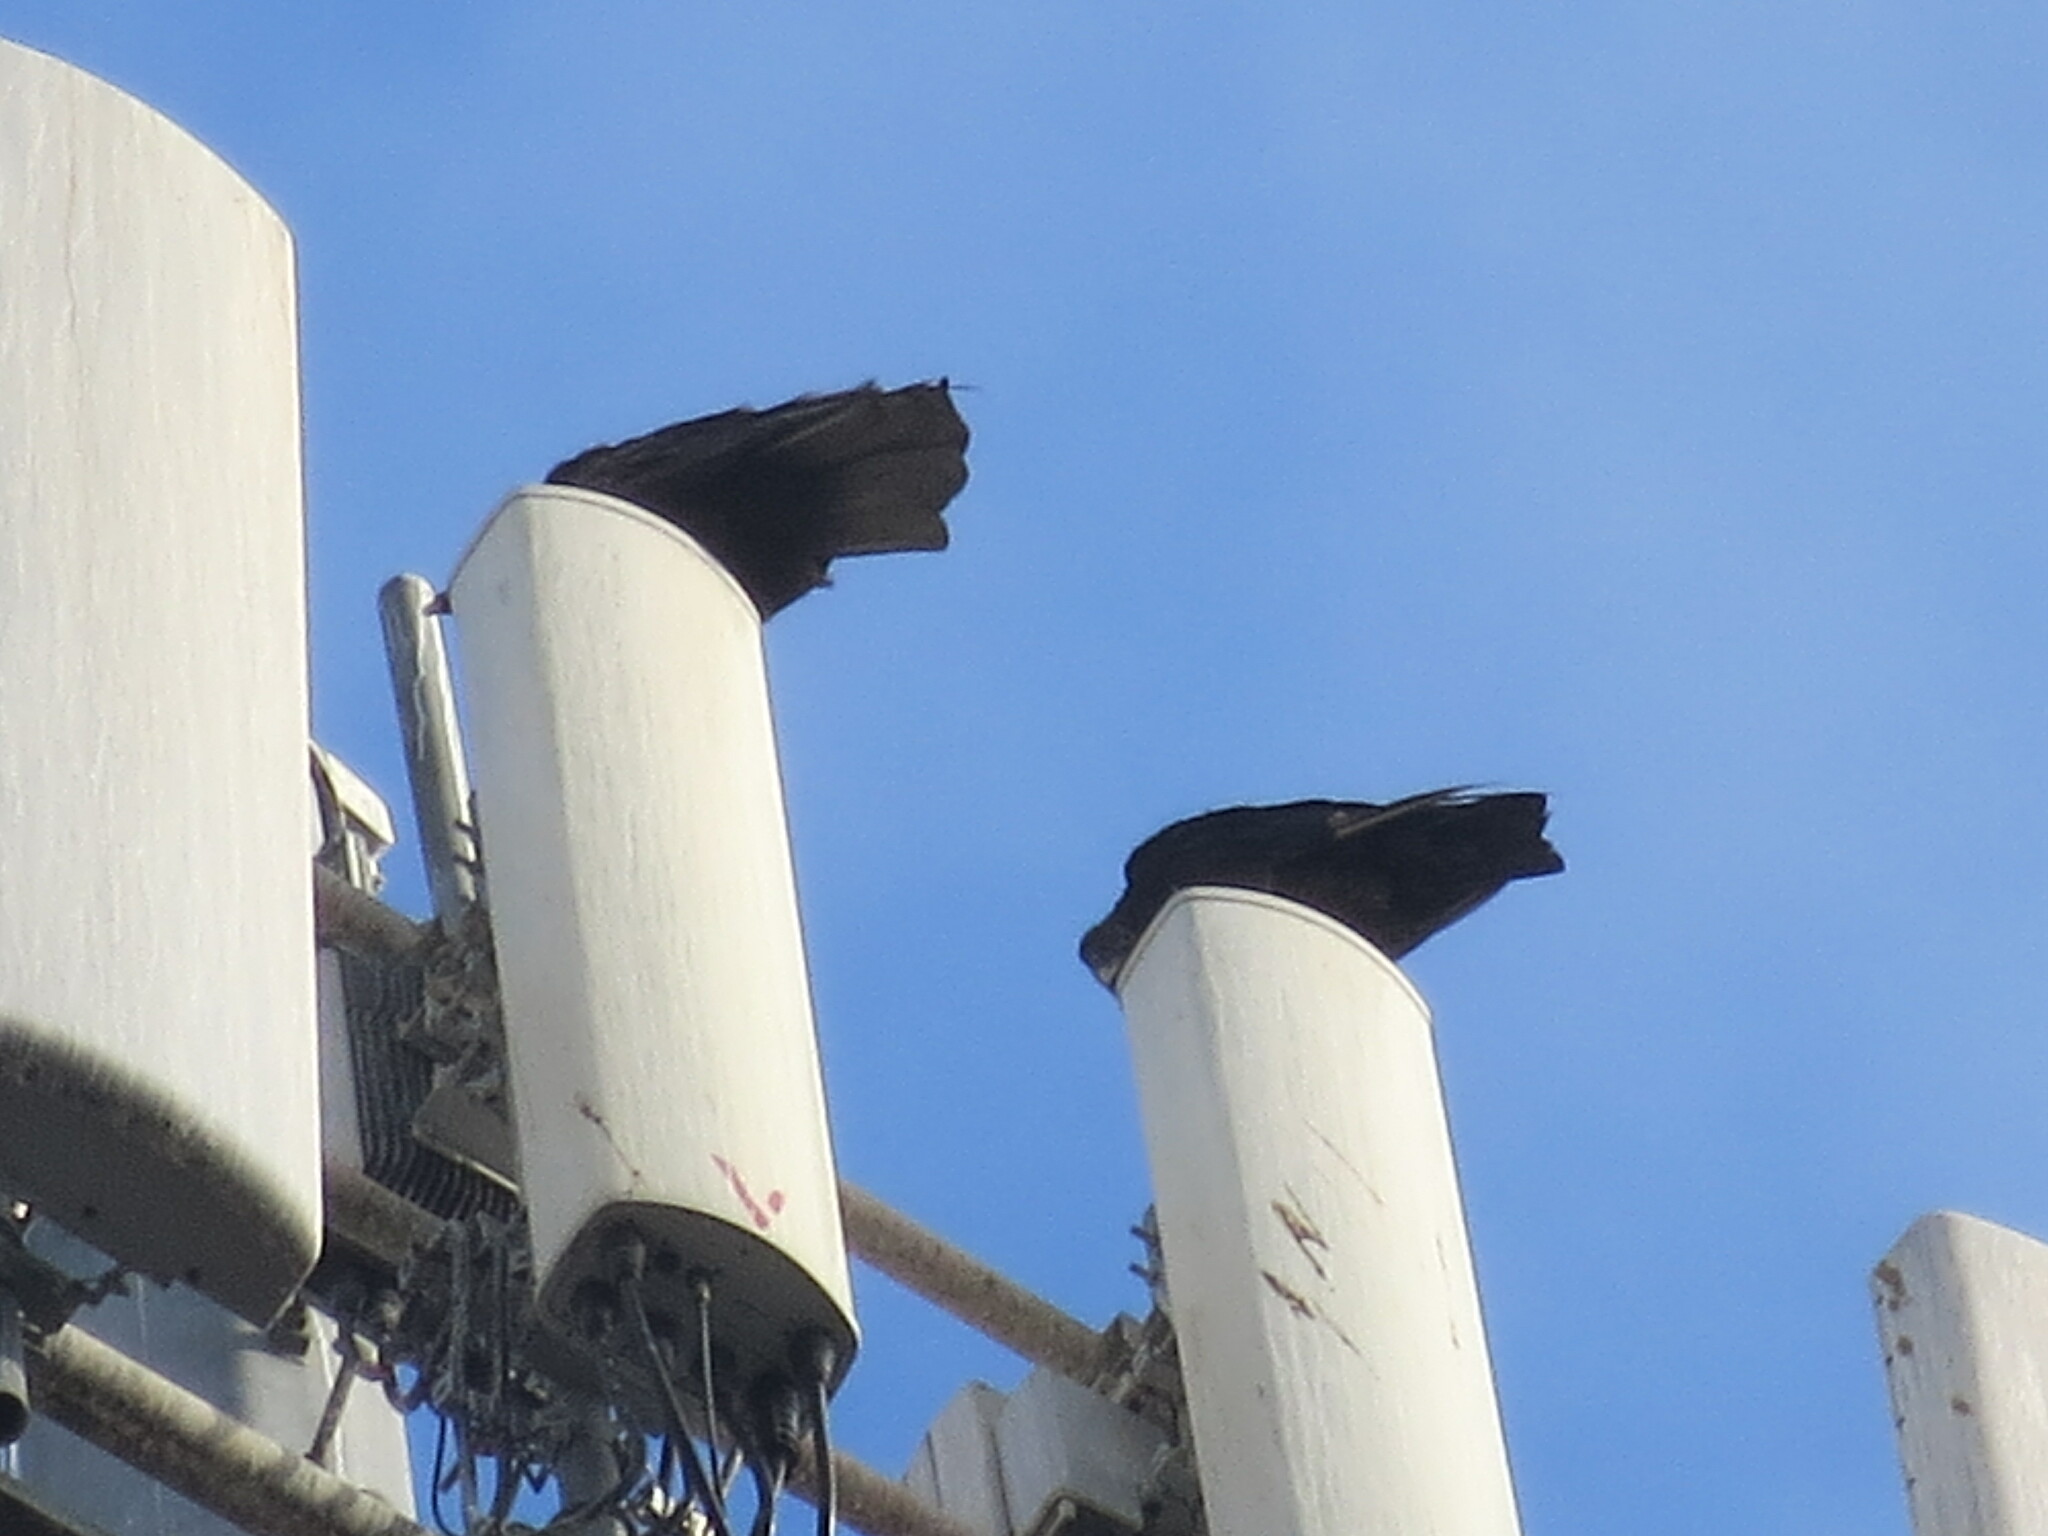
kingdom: Animalia
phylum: Chordata
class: Aves
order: Accipitriformes
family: Cathartidae
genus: Coragyps
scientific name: Coragyps atratus
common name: Black vulture
